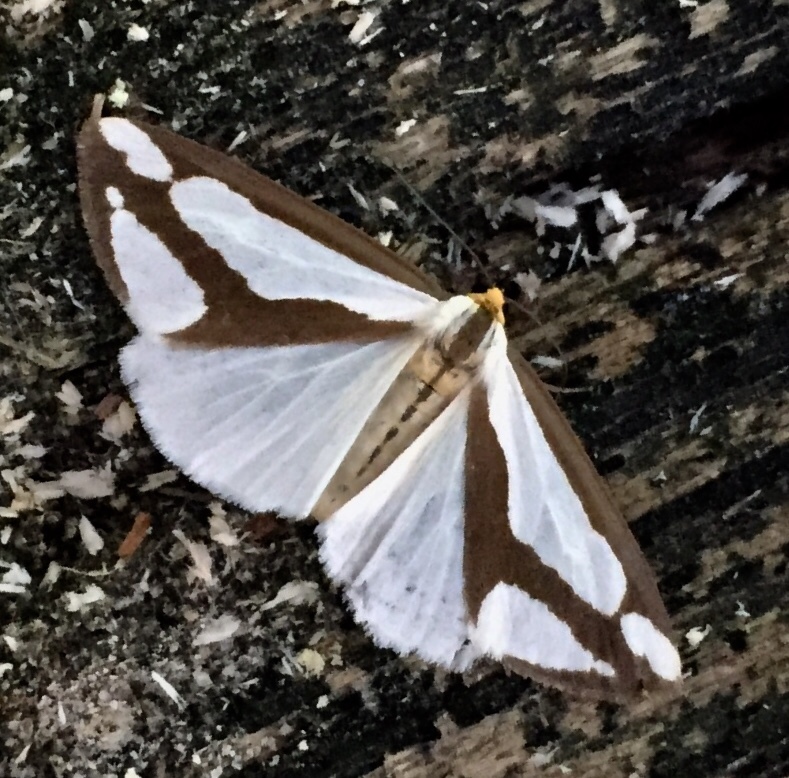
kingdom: Animalia
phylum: Arthropoda
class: Insecta
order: Lepidoptera
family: Erebidae
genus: Haploa
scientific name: Haploa lecontei
